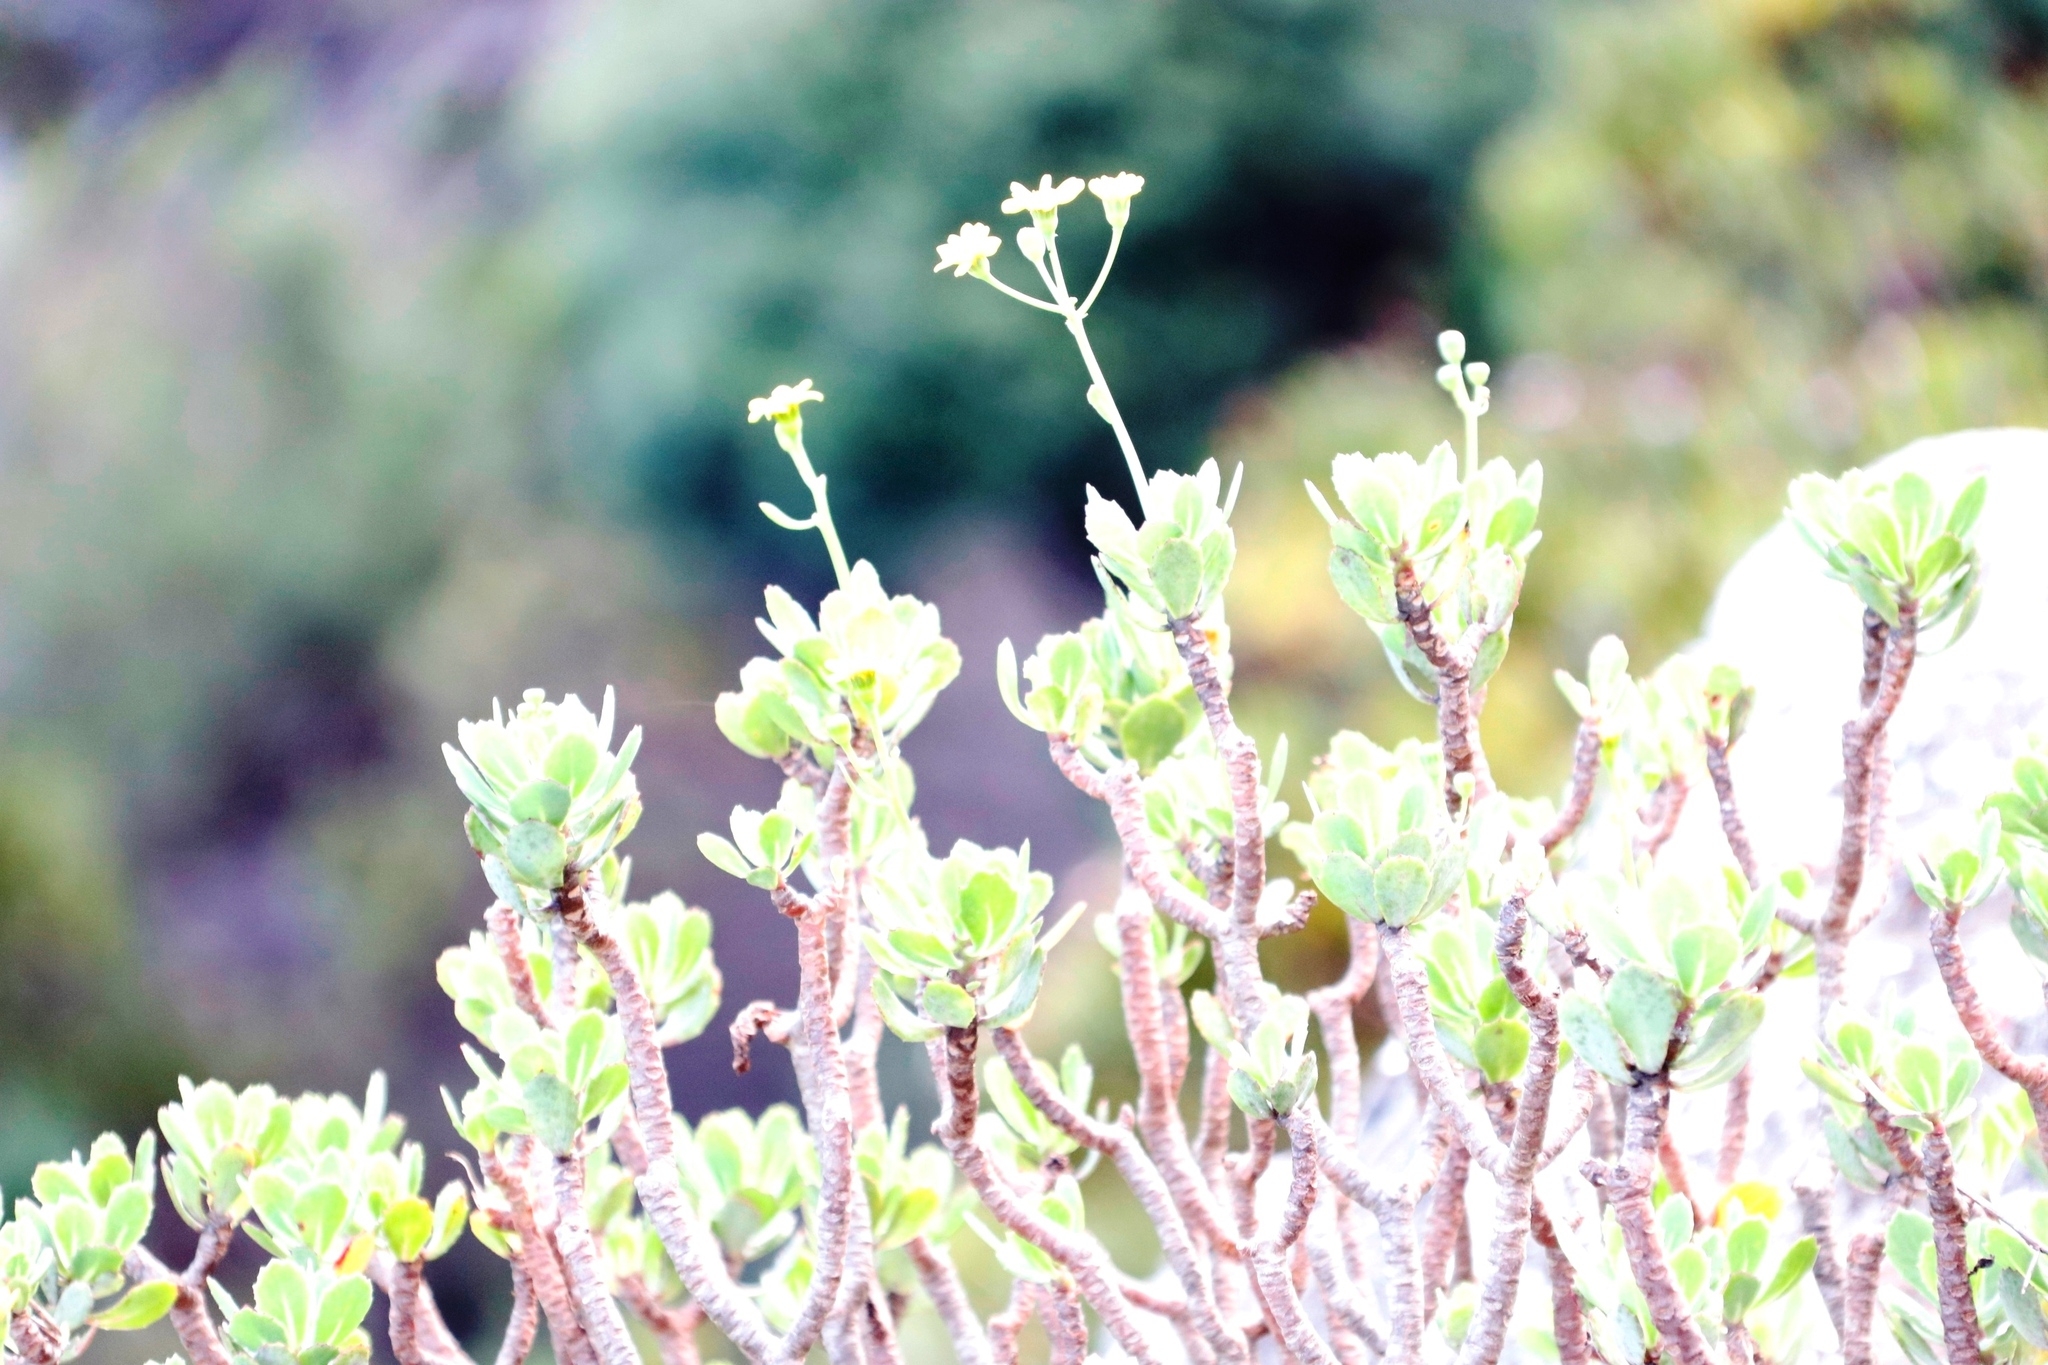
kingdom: Plantae
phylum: Tracheophyta
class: Magnoliopsida
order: Asterales
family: Asteraceae
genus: Othonna
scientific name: Othonna dentata
